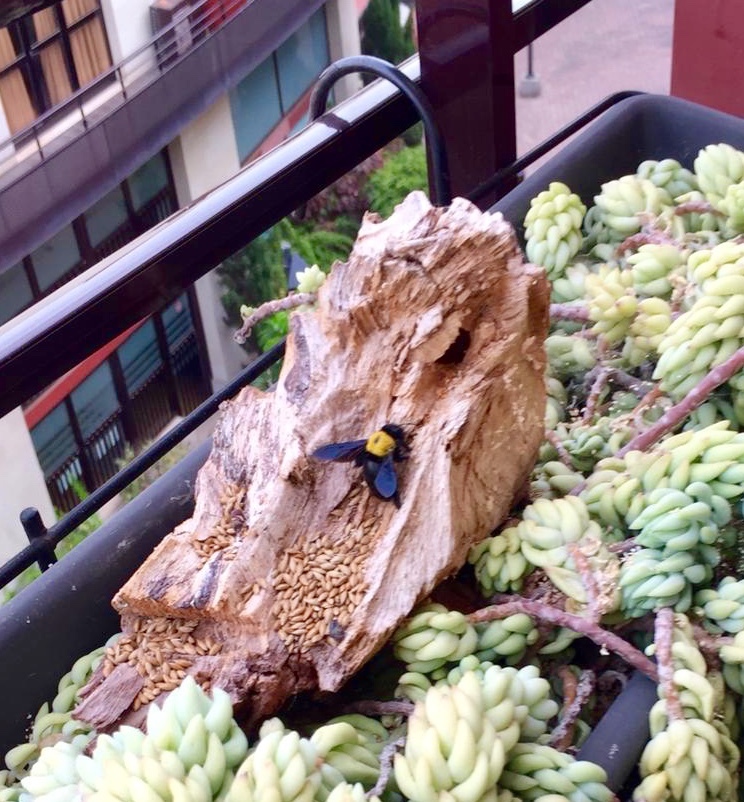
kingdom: Animalia
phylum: Arthropoda
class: Insecta
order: Hymenoptera
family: Apidae
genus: Xylocopa
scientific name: Xylocopa pubescens
